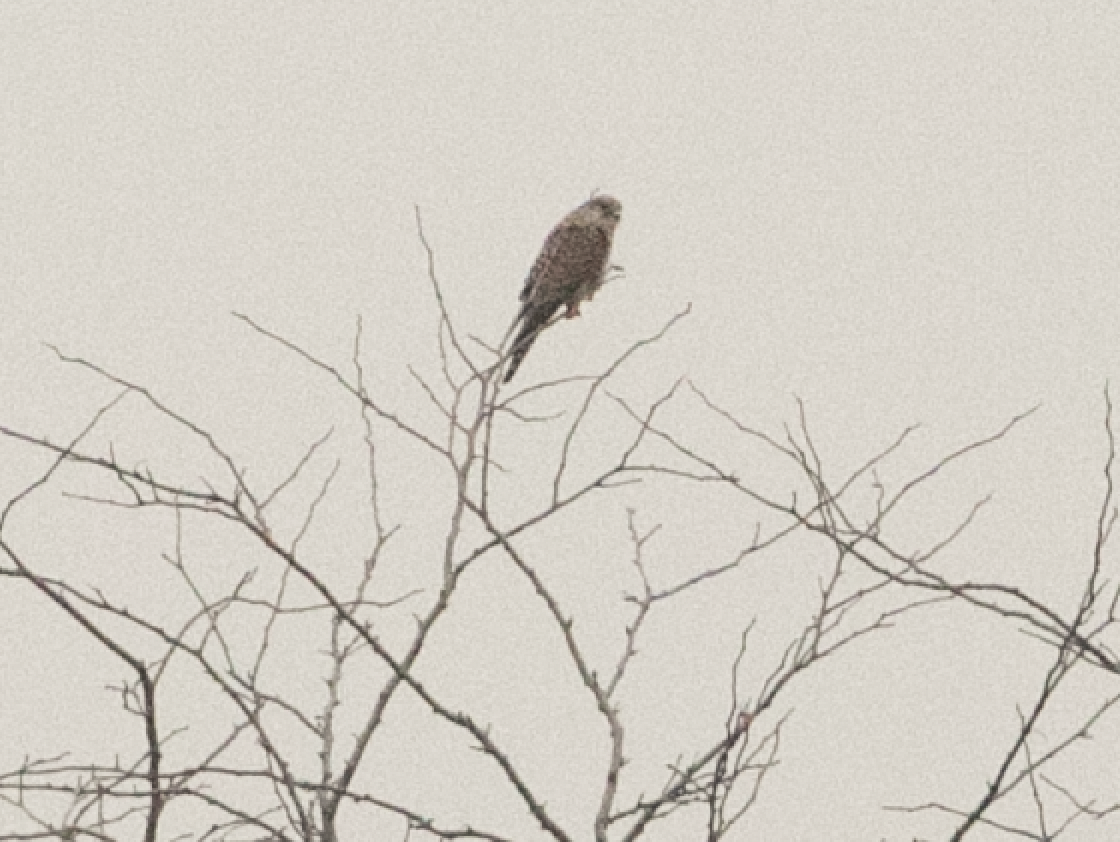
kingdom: Animalia
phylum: Chordata
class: Aves
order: Falconiformes
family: Falconidae
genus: Falco
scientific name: Falco tinnunculus
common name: Common kestrel
